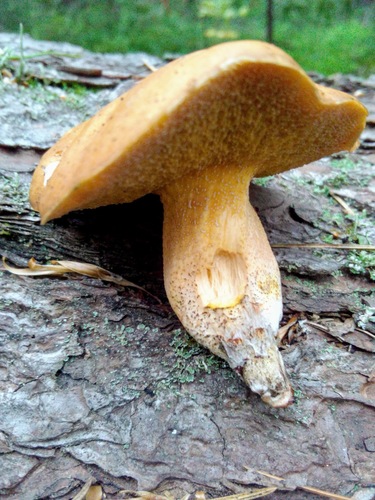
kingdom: Fungi
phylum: Basidiomycota
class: Agaricomycetes
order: Boletales
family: Suillaceae
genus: Suillus
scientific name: Suillus plorans
